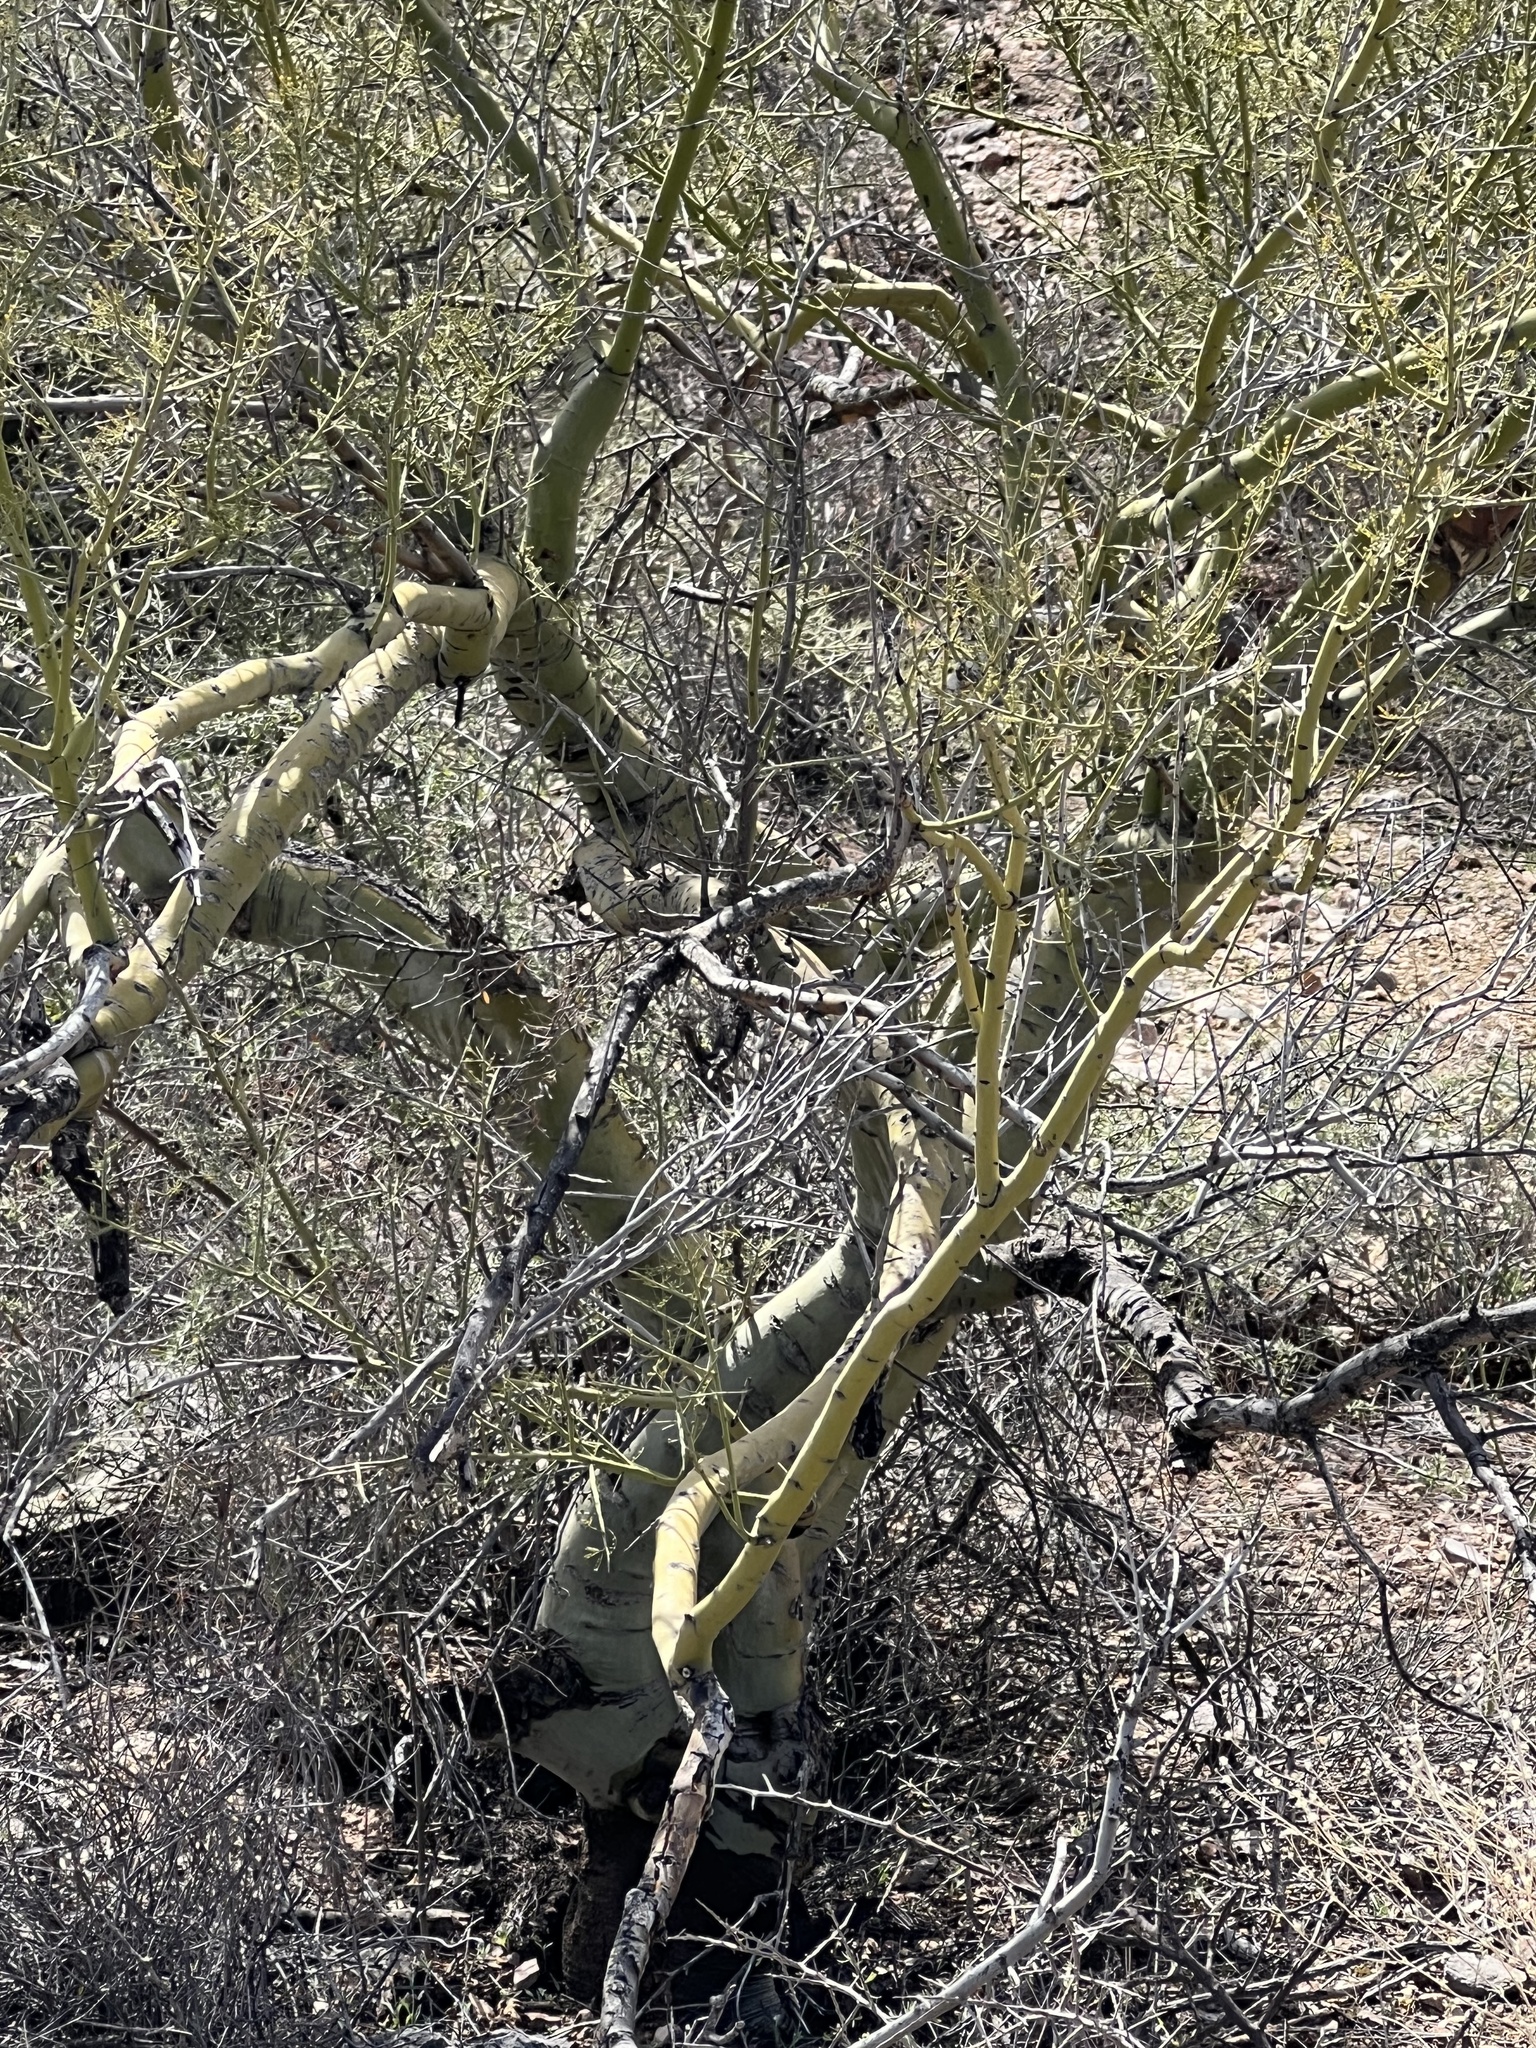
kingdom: Plantae
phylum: Tracheophyta
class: Magnoliopsida
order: Fabales
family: Fabaceae
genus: Parkinsonia
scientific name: Parkinsonia microphylla
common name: Yellow paloverde
